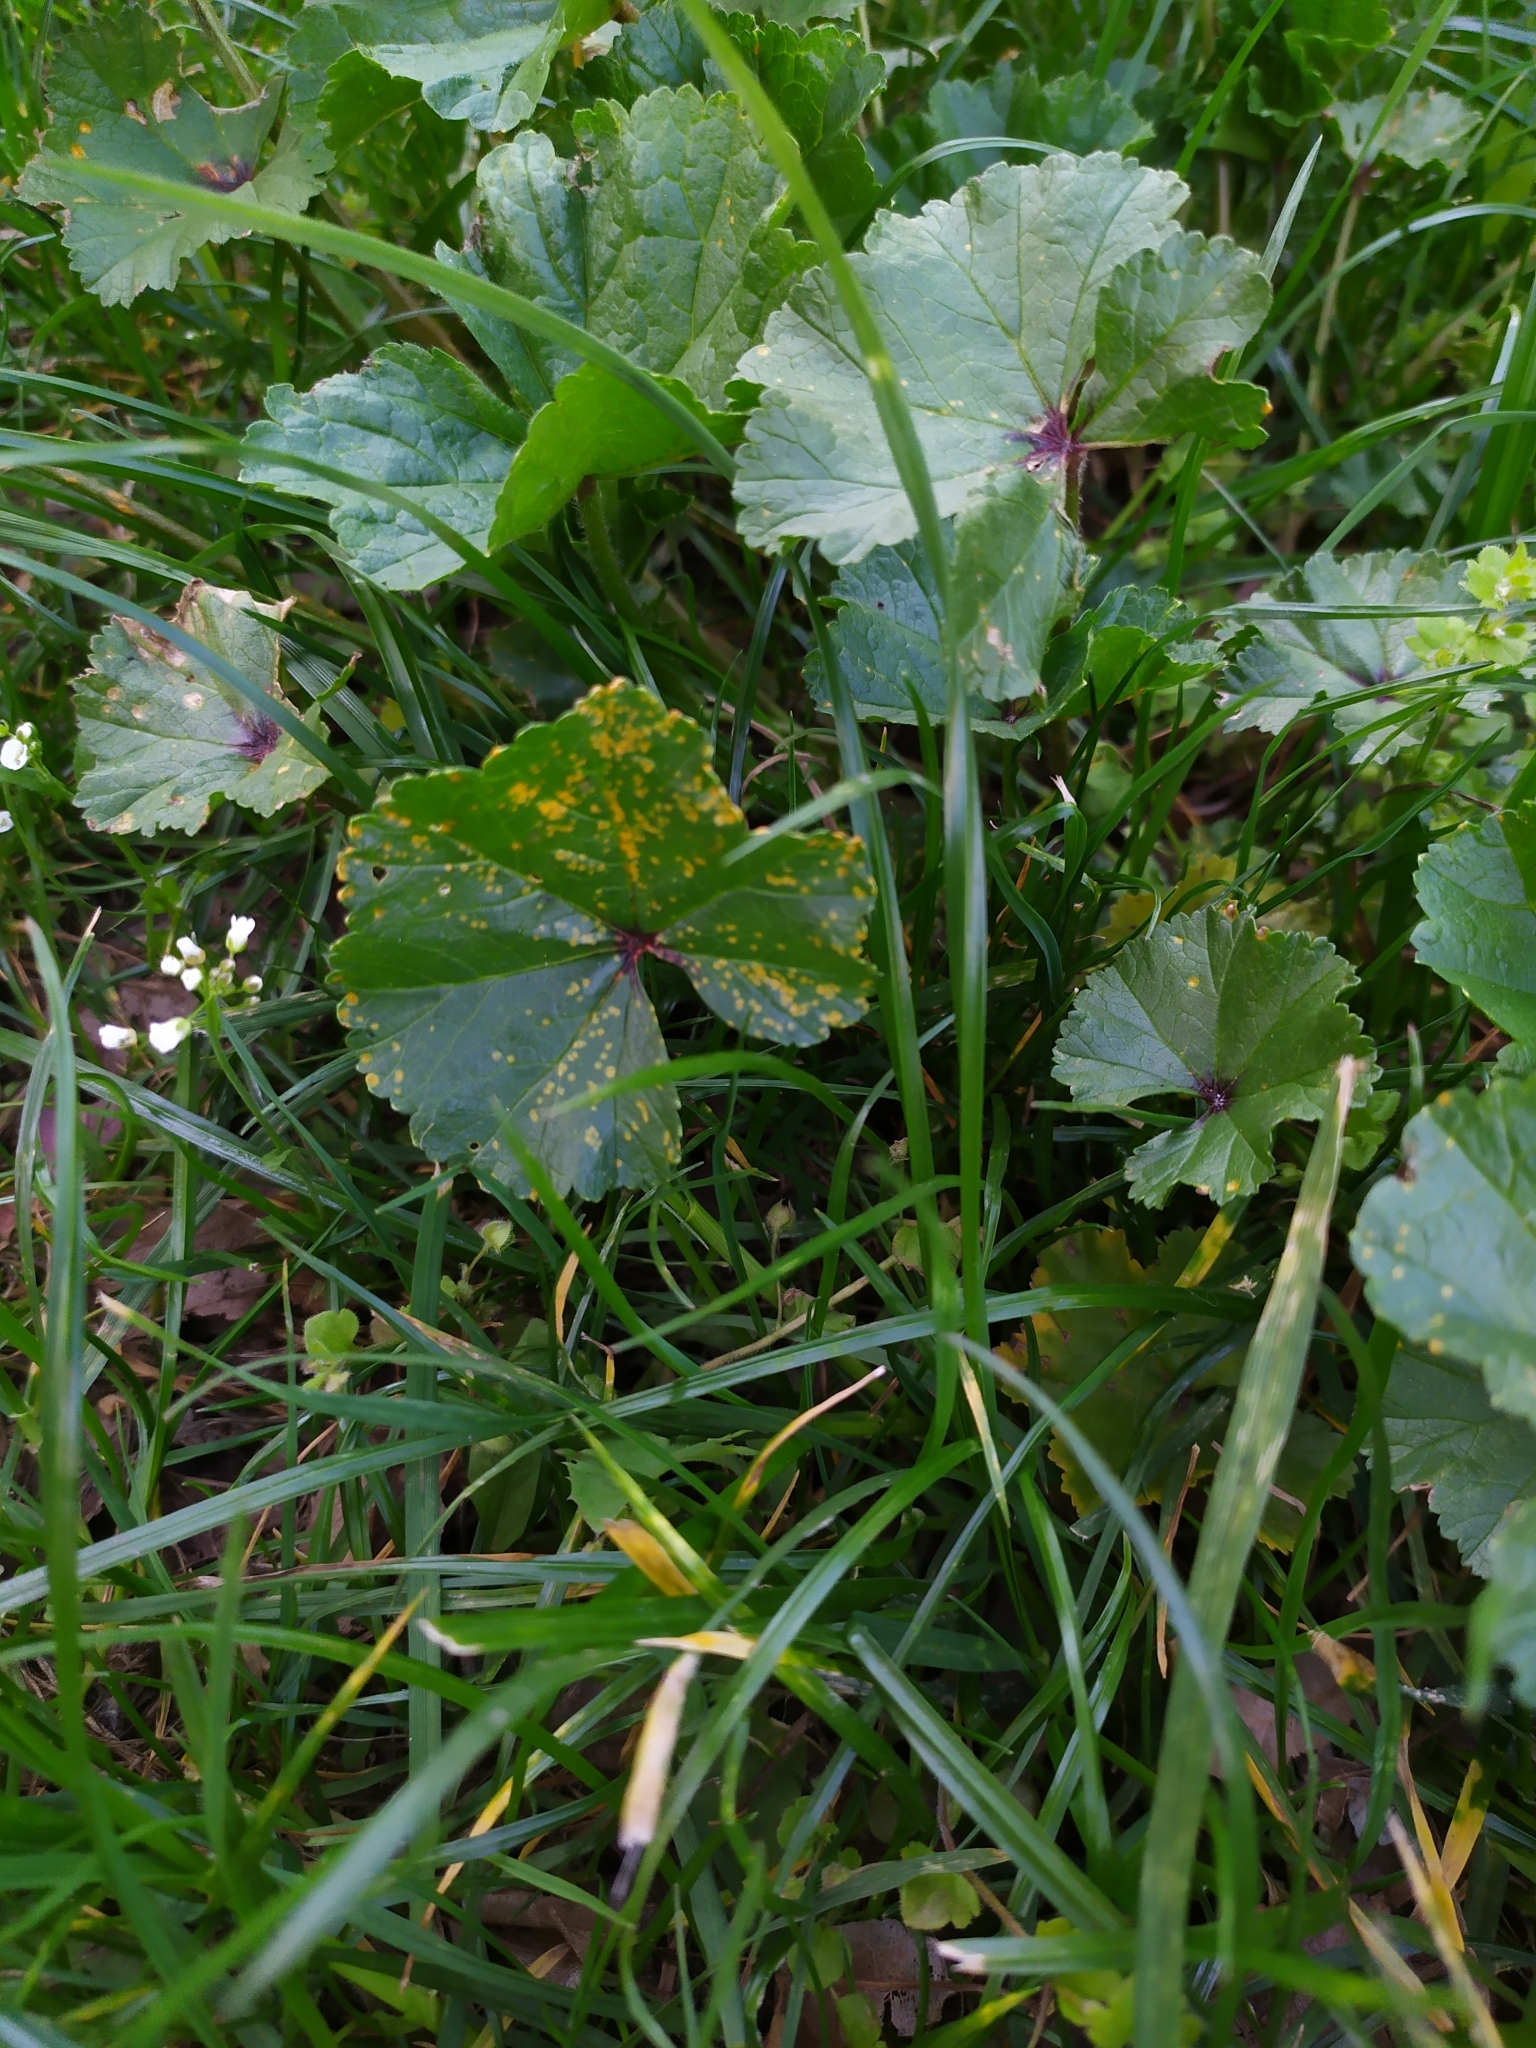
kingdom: Fungi
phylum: Basidiomycota
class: Pucciniomycetes
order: Pucciniales
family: Pucciniaceae
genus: Puccinia
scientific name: Puccinia malvacearum
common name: Hollyhock rust
